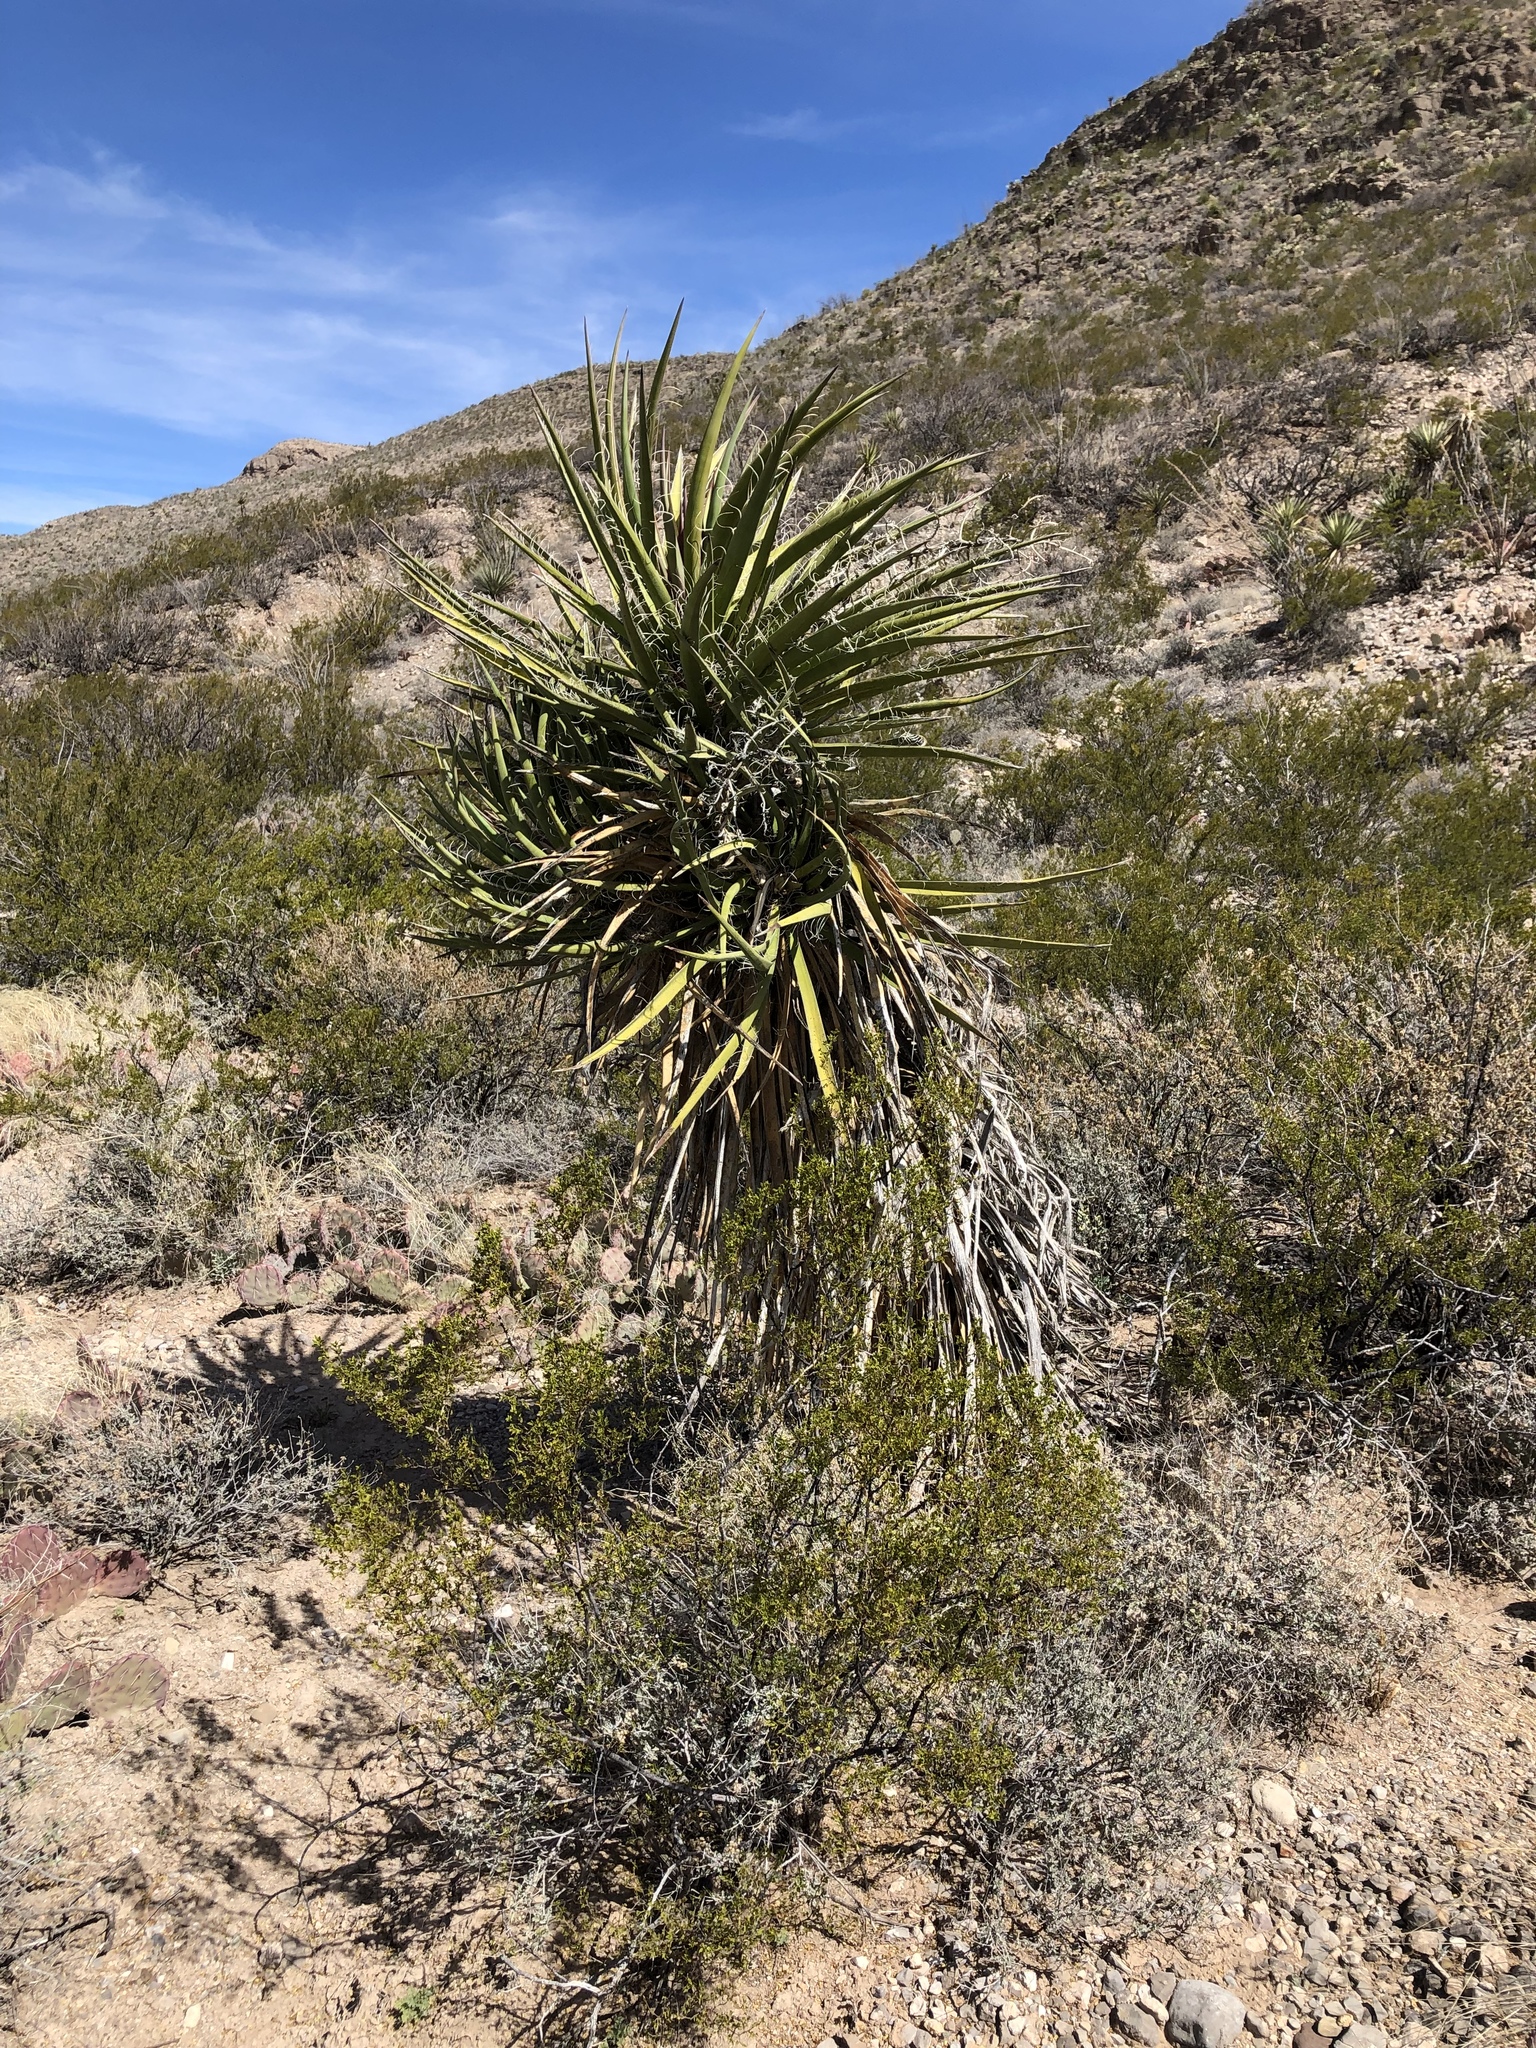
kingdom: Plantae
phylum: Tracheophyta
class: Liliopsida
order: Asparagales
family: Asparagaceae
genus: Yucca
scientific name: Yucca baccata
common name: Banana yucca
